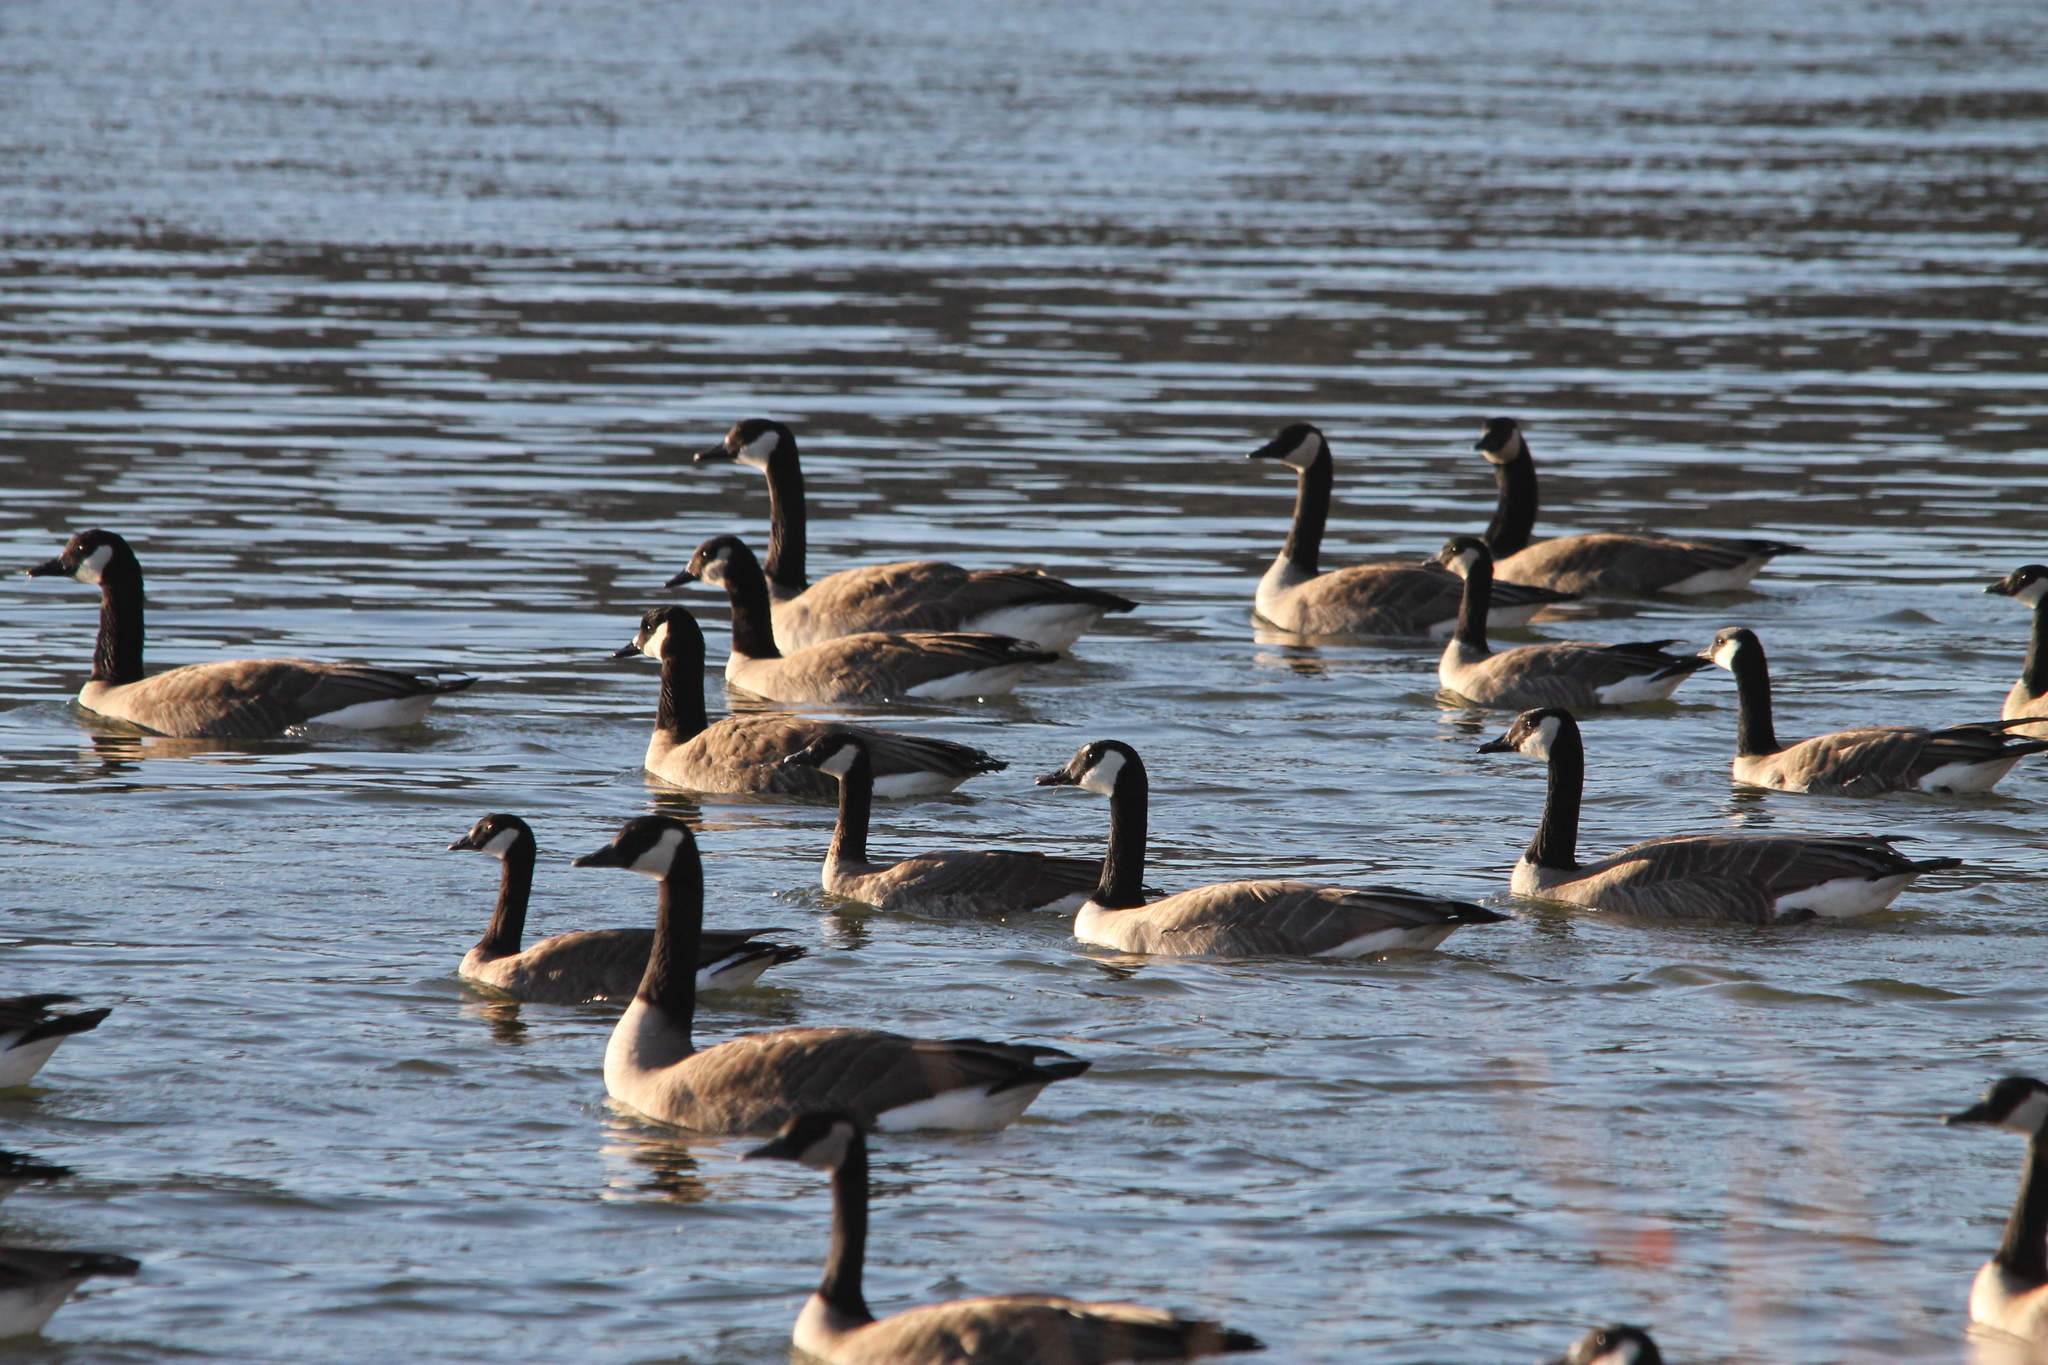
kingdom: Animalia
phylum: Chordata
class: Aves
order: Anseriformes
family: Anatidae
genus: Branta
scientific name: Branta canadensis
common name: Canada goose
